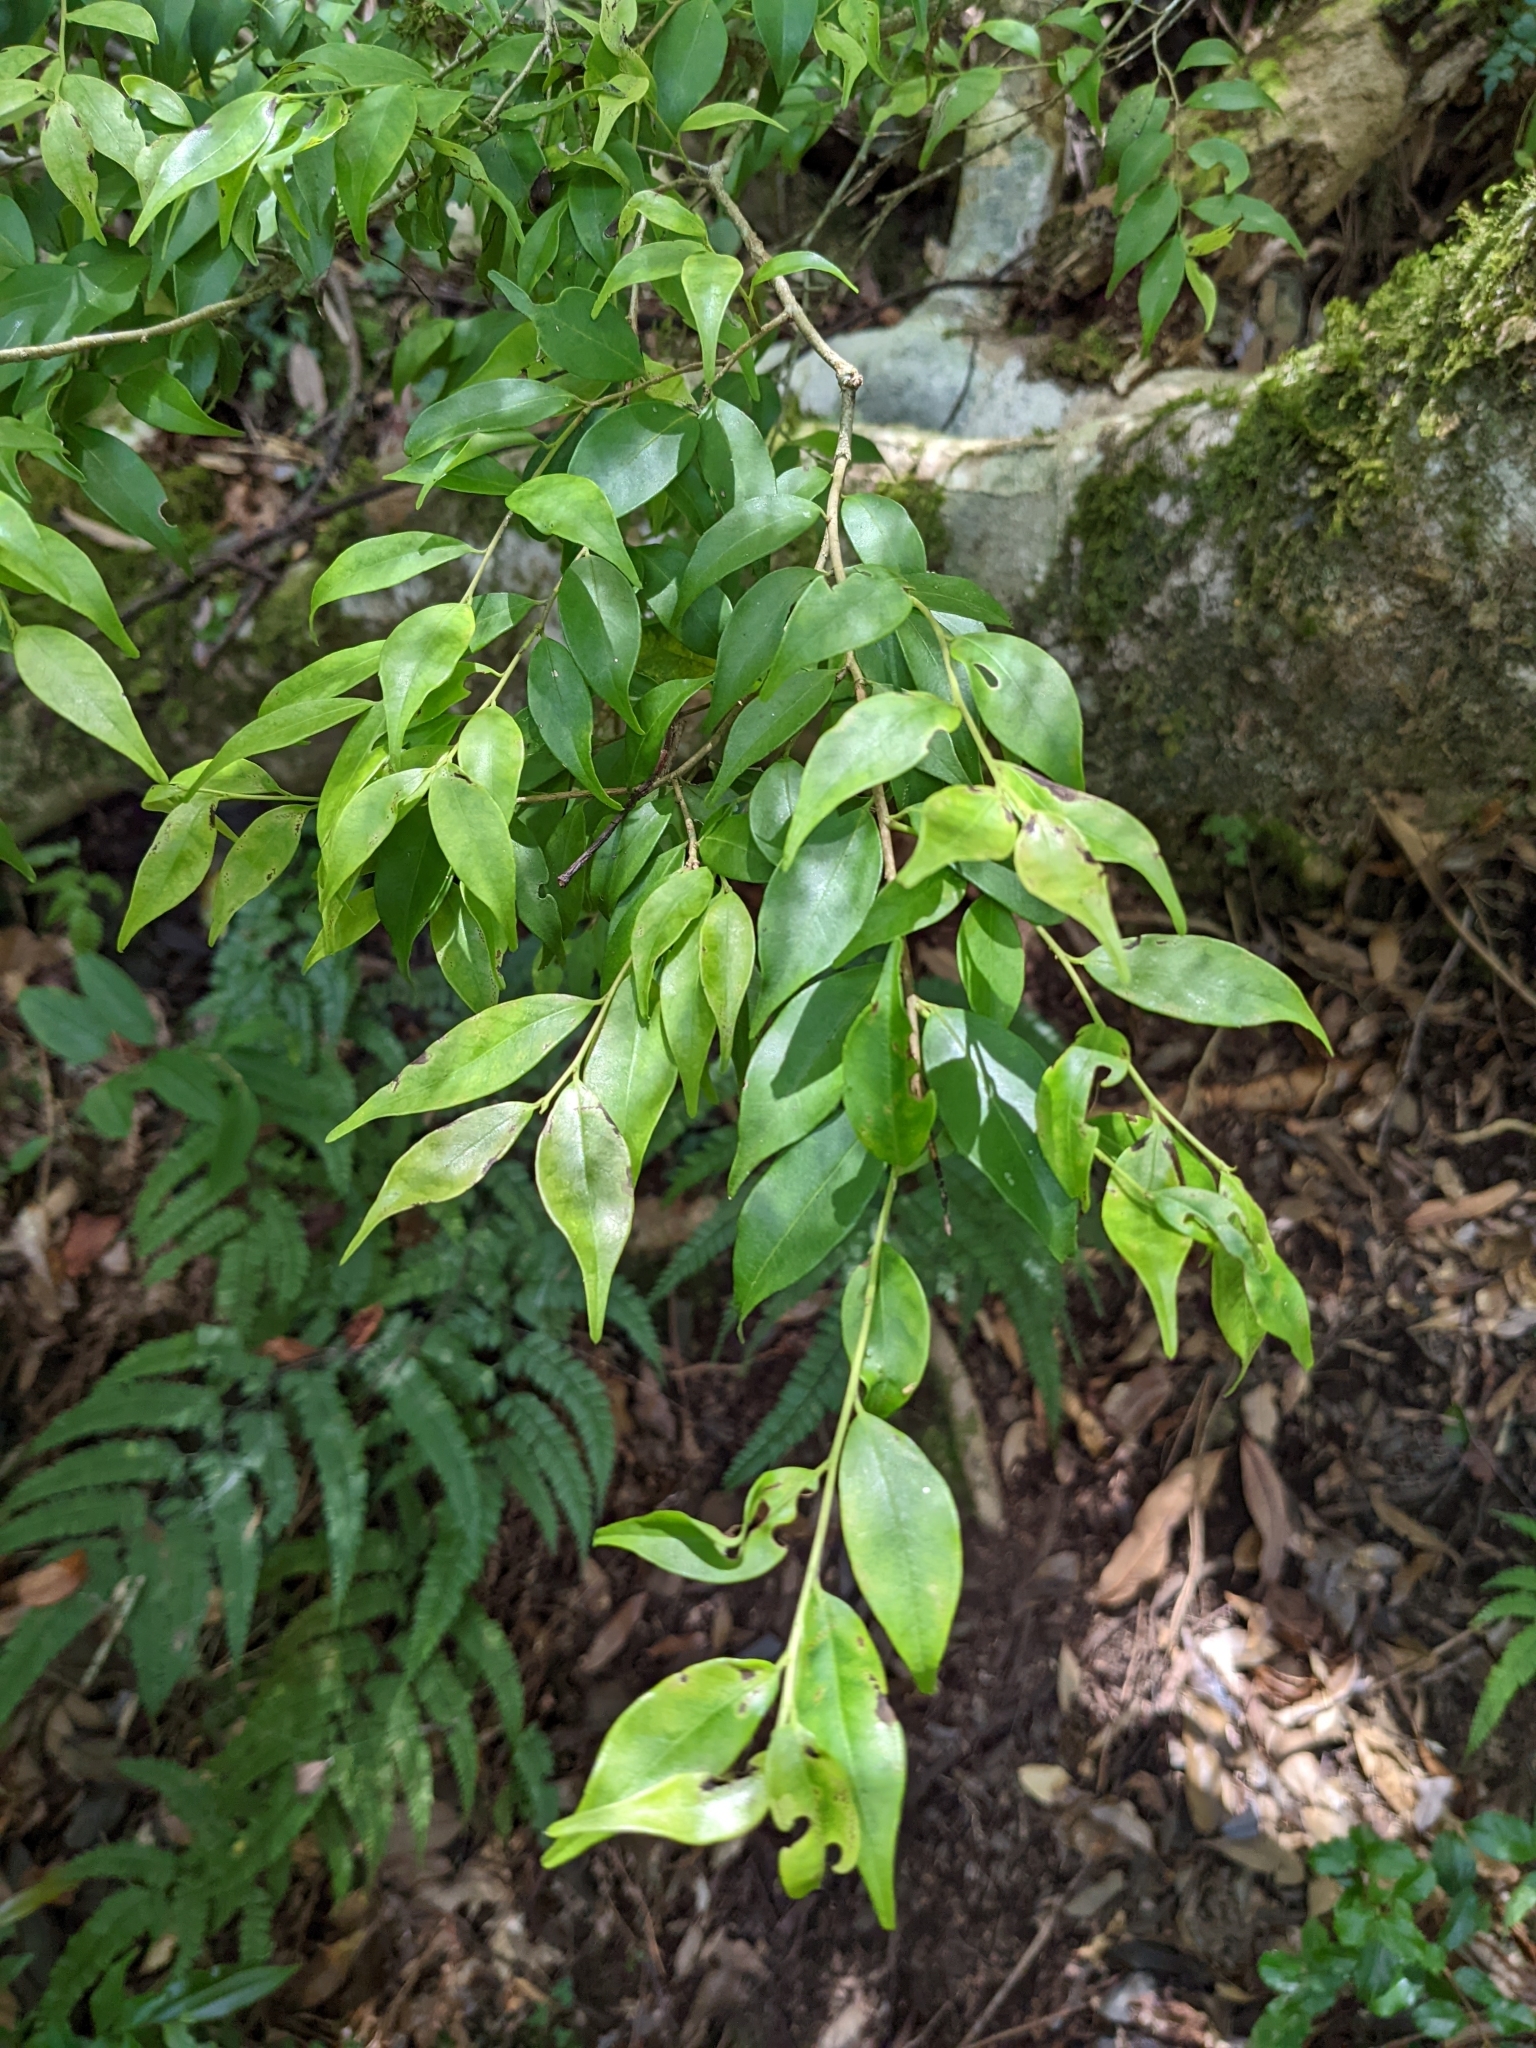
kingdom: Plantae
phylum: Tracheophyta
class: Magnoliopsida
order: Aquifoliales
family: Aquifoliaceae
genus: Ilex
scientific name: Ilex hayataiana
